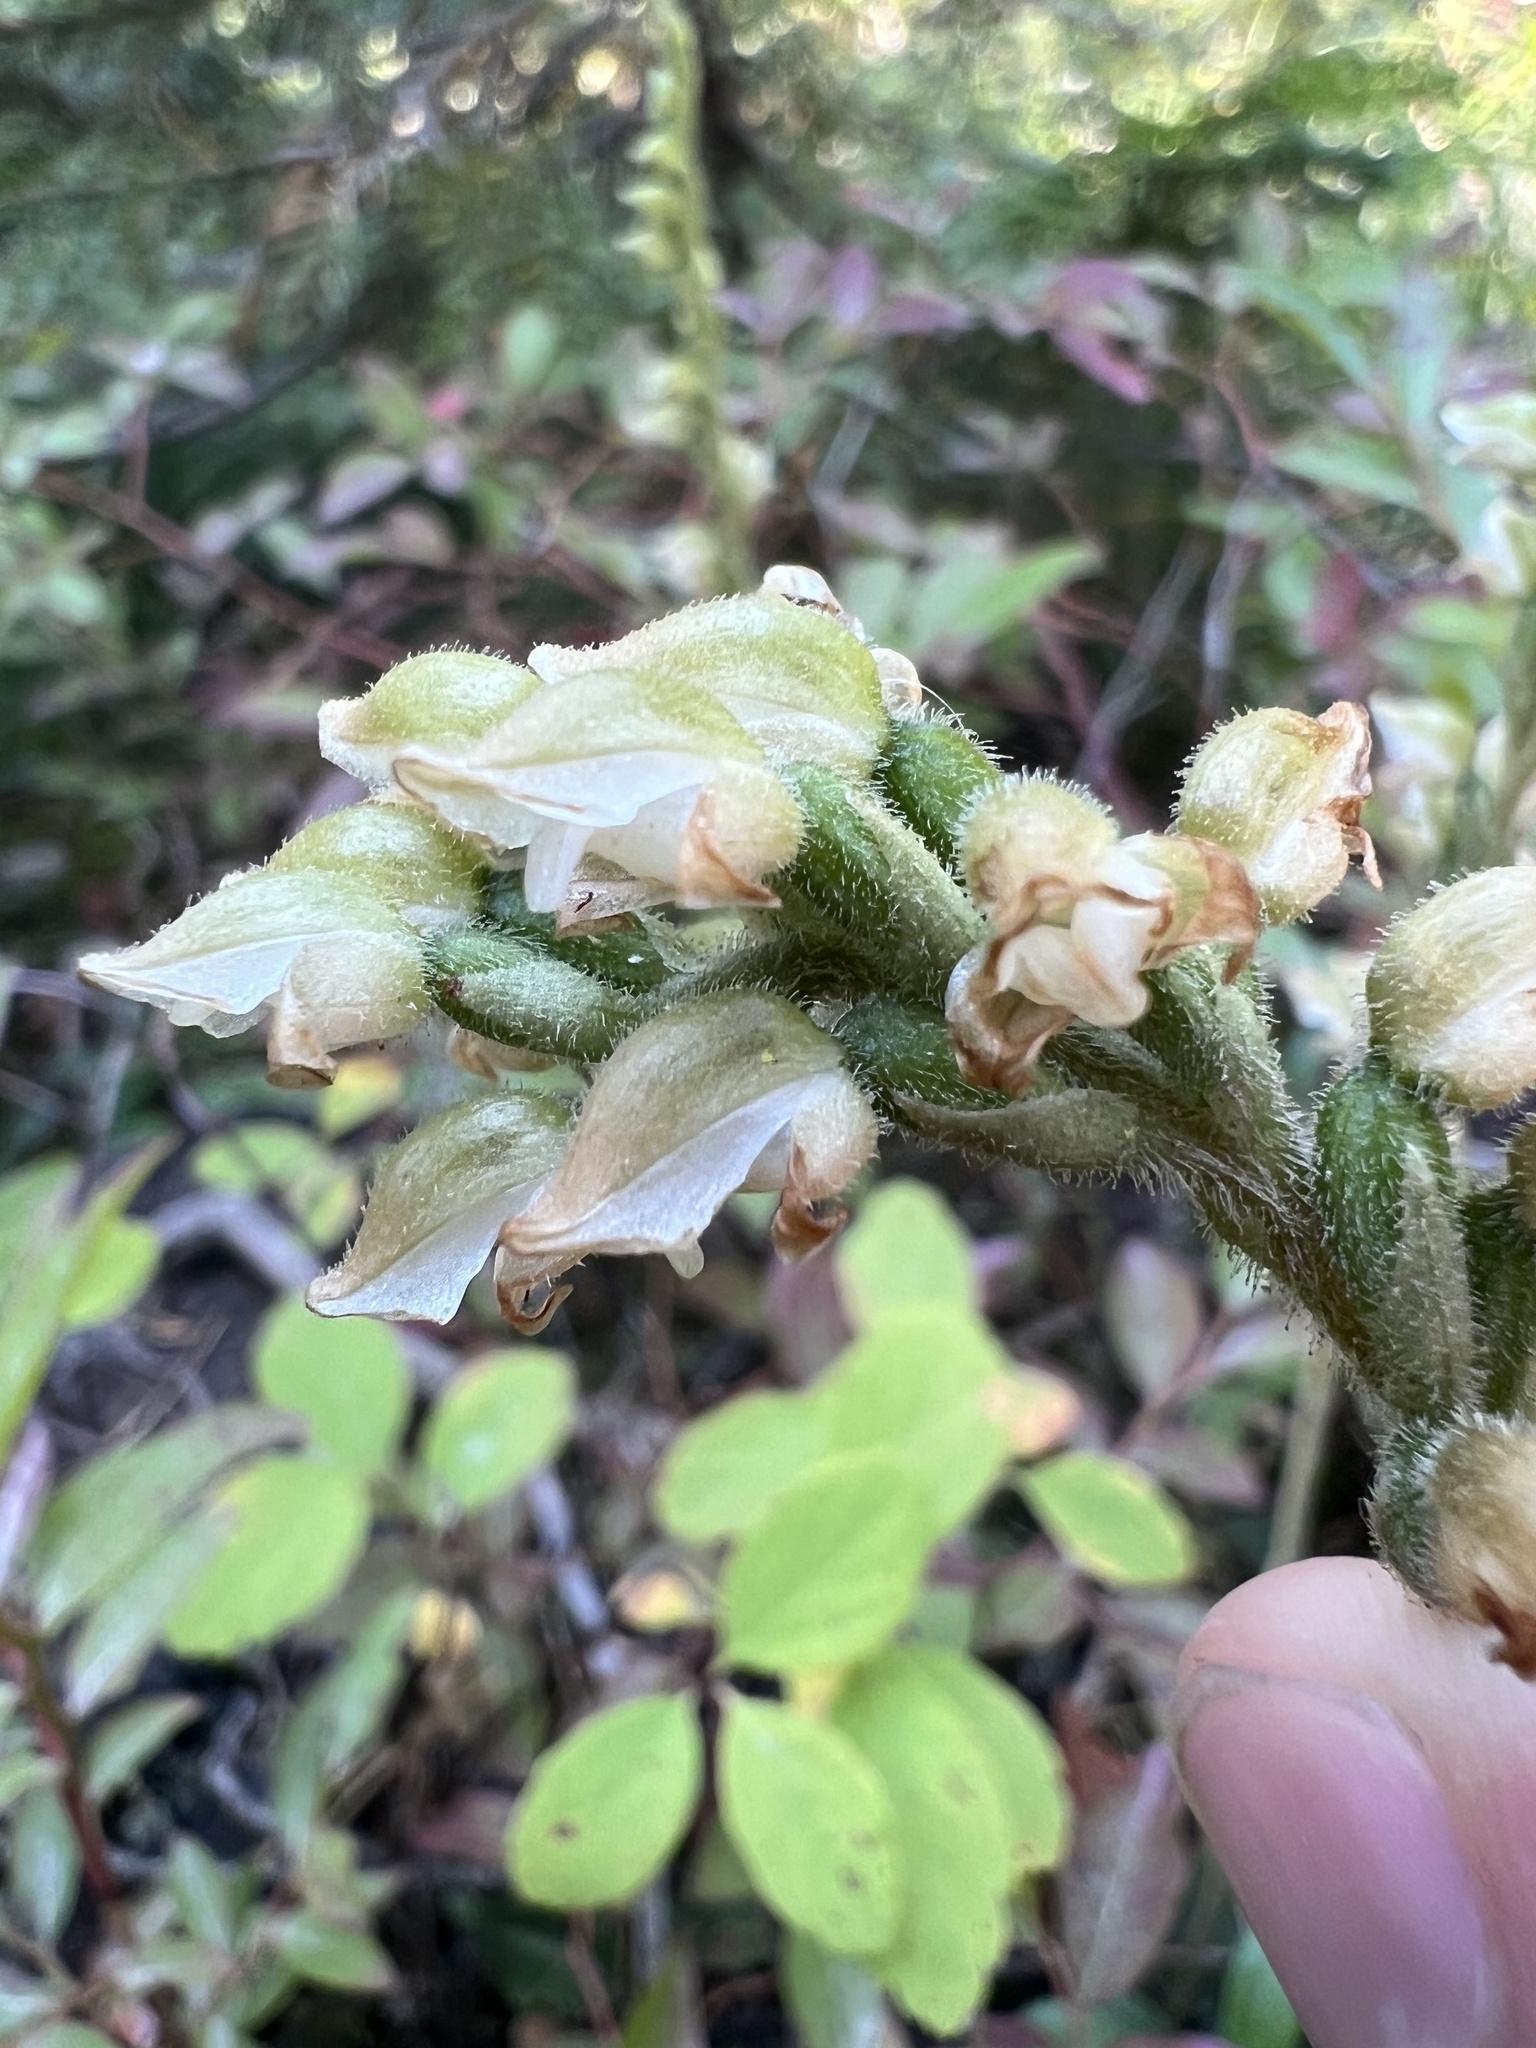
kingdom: Plantae
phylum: Tracheophyta
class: Liliopsida
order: Asparagales
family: Orchidaceae
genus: Goodyera
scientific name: Goodyera oblongifolia
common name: Giant rattlesnake-plantain
